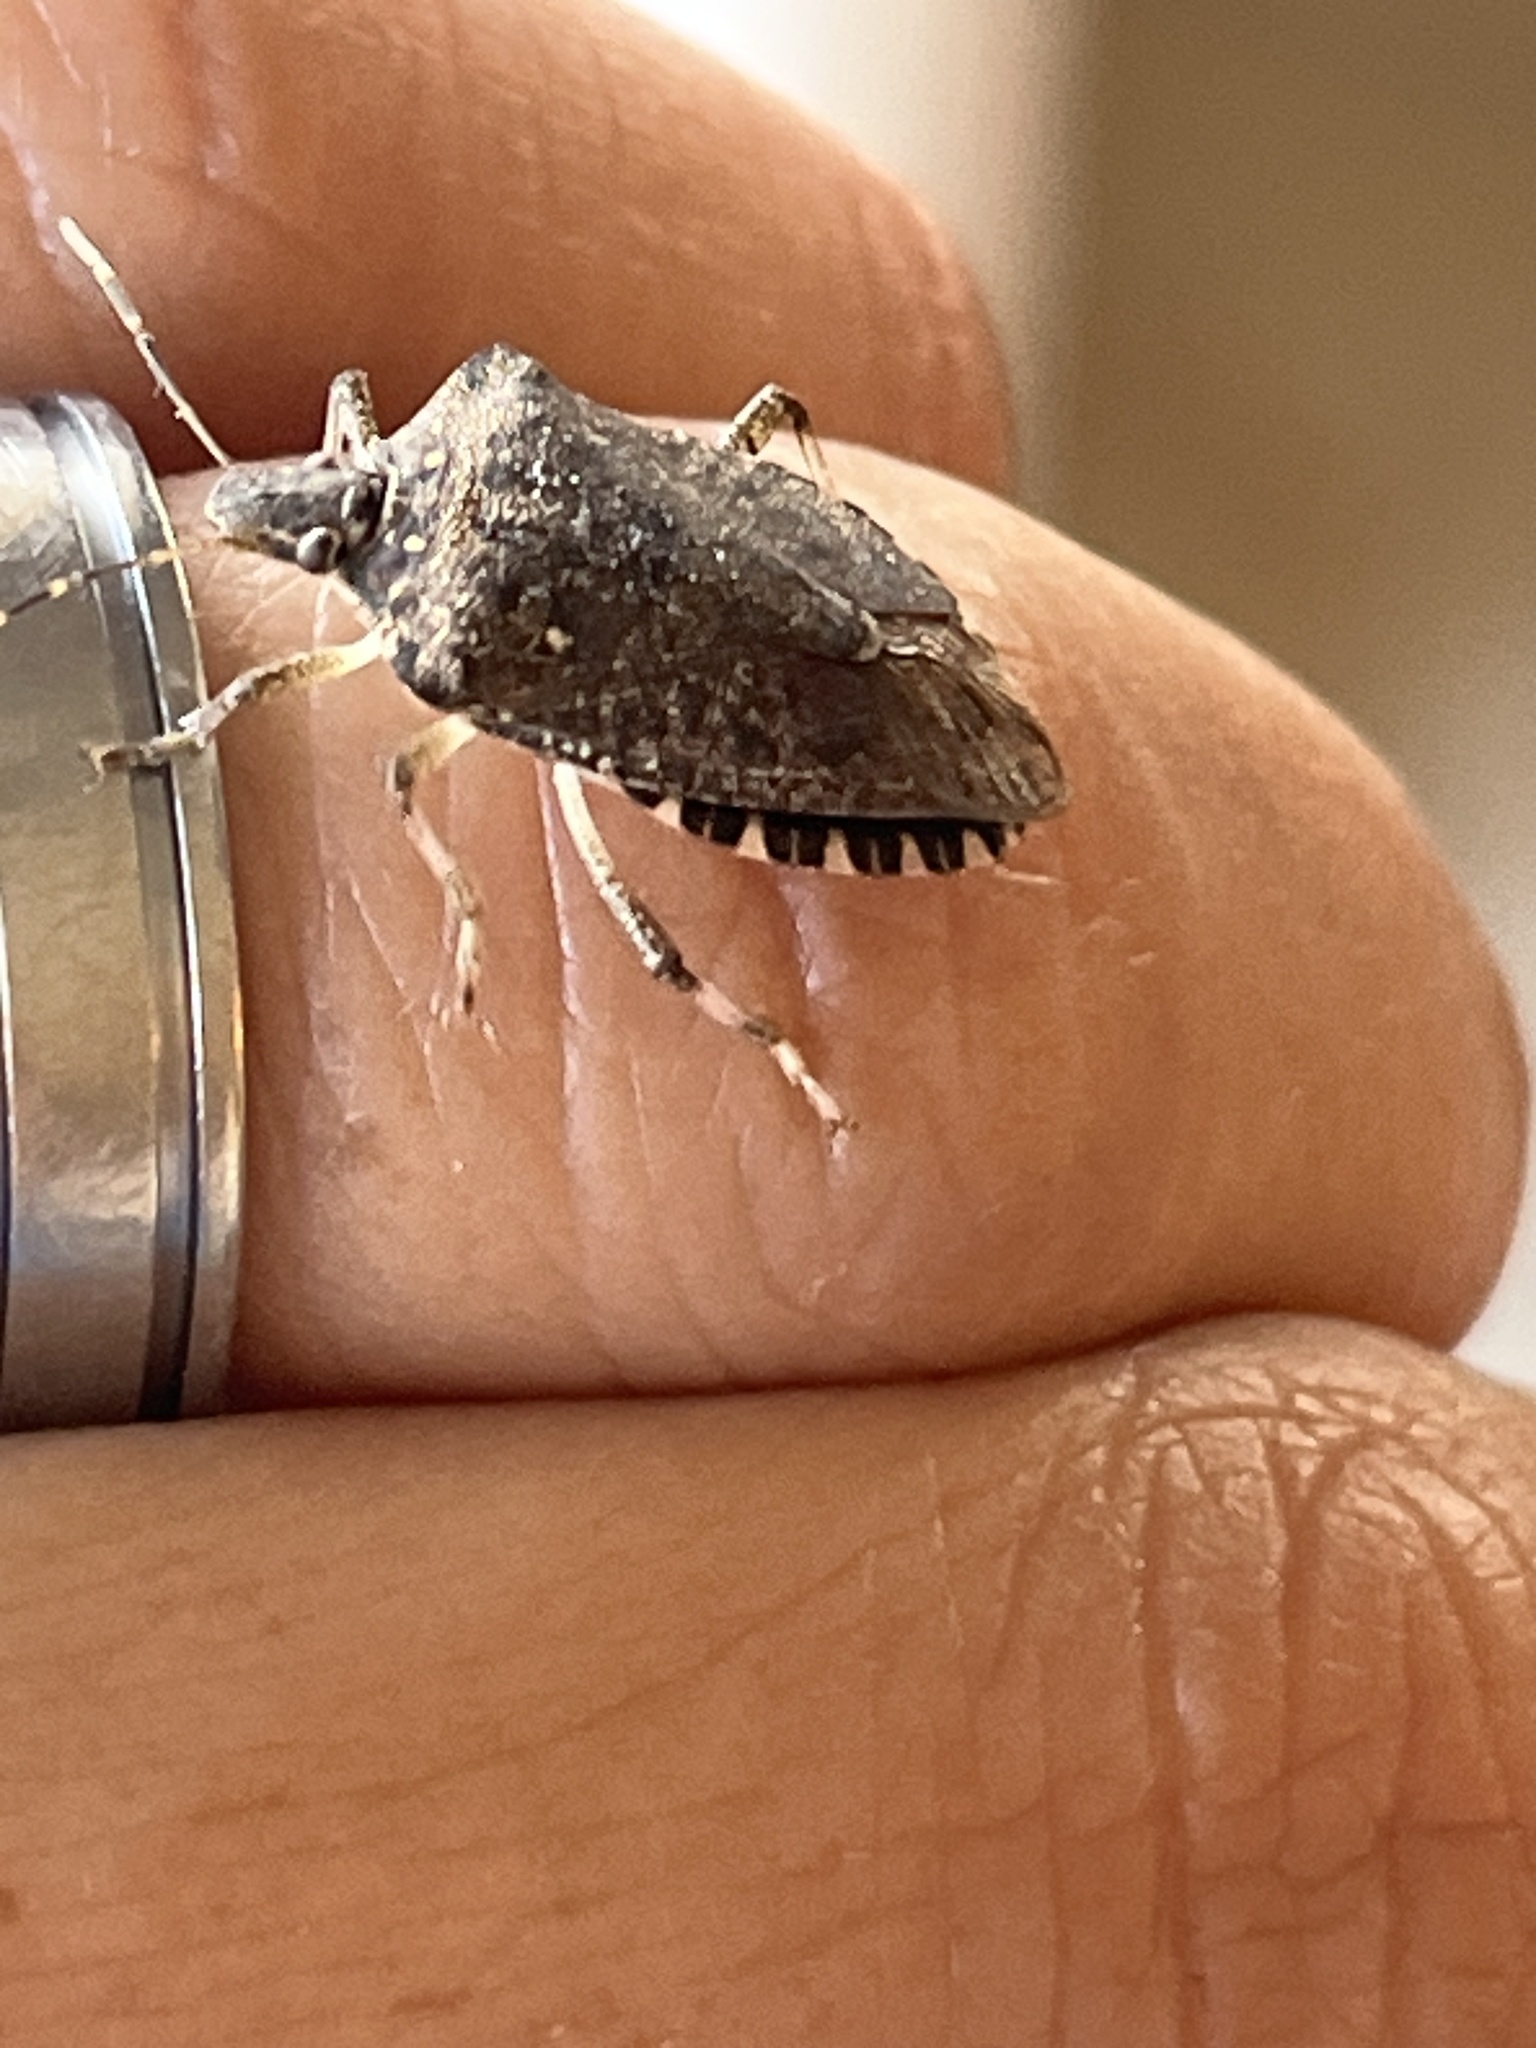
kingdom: Animalia
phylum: Arthropoda
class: Insecta
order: Hemiptera
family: Pentatomidae
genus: Halyomorpha
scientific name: Halyomorpha halys
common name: Brown marmorated stink bug
